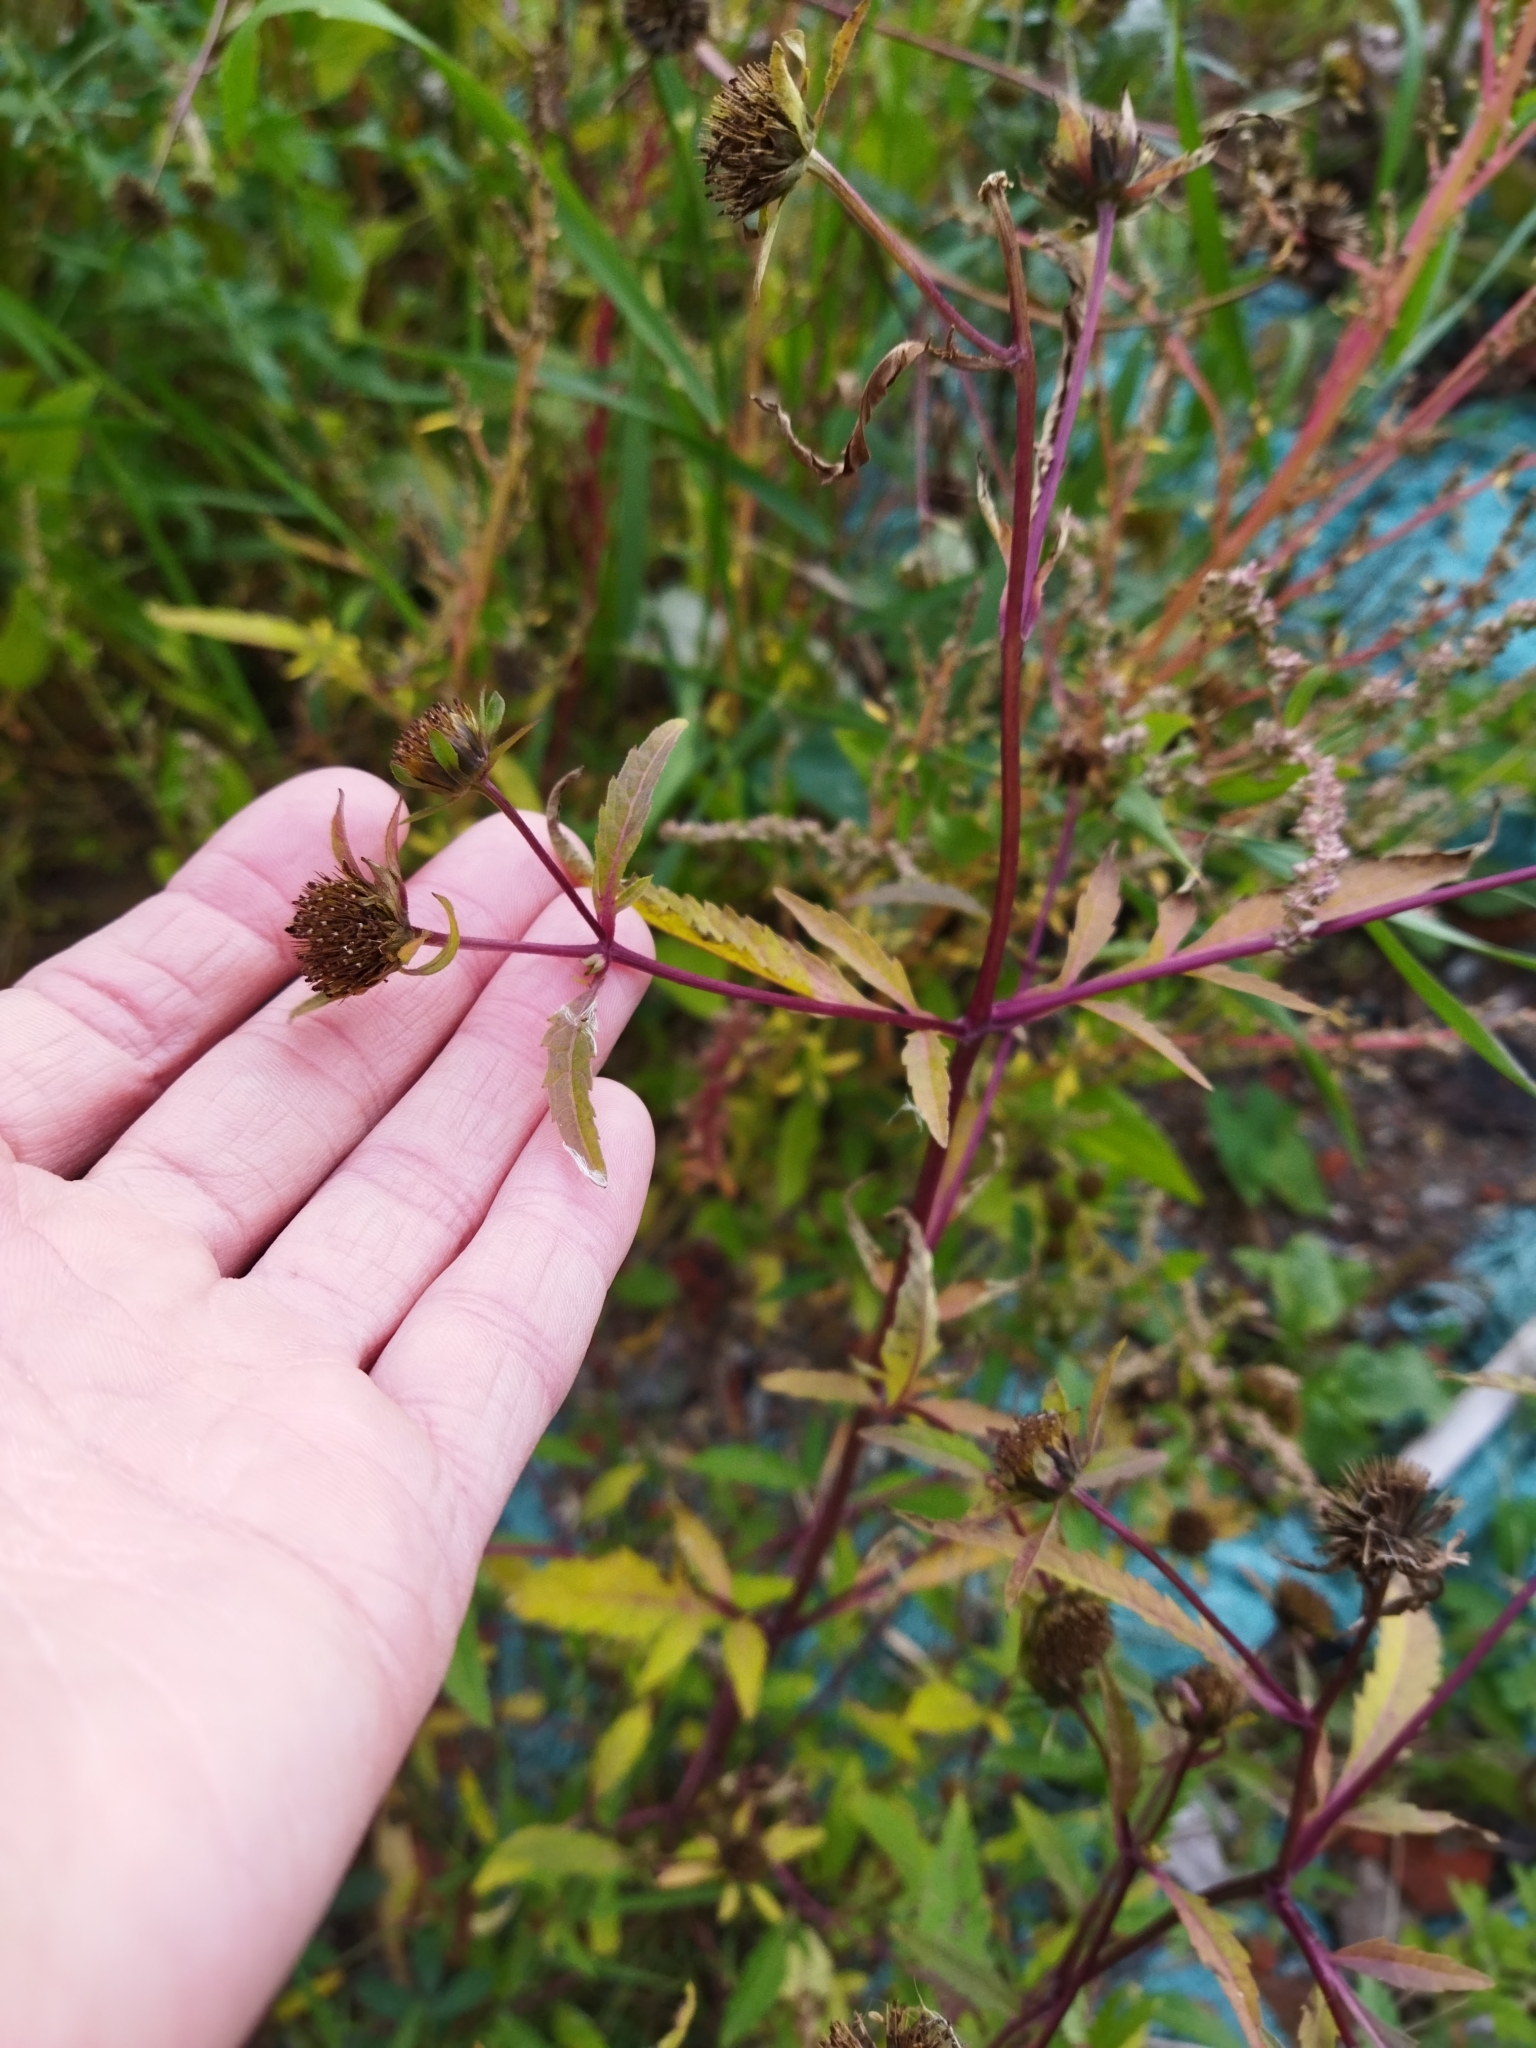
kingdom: Plantae
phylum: Tracheophyta
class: Magnoliopsida
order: Asterales
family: Asteraceae
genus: Bidens
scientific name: Bidens tripartita
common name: Trifid bur-marigold
